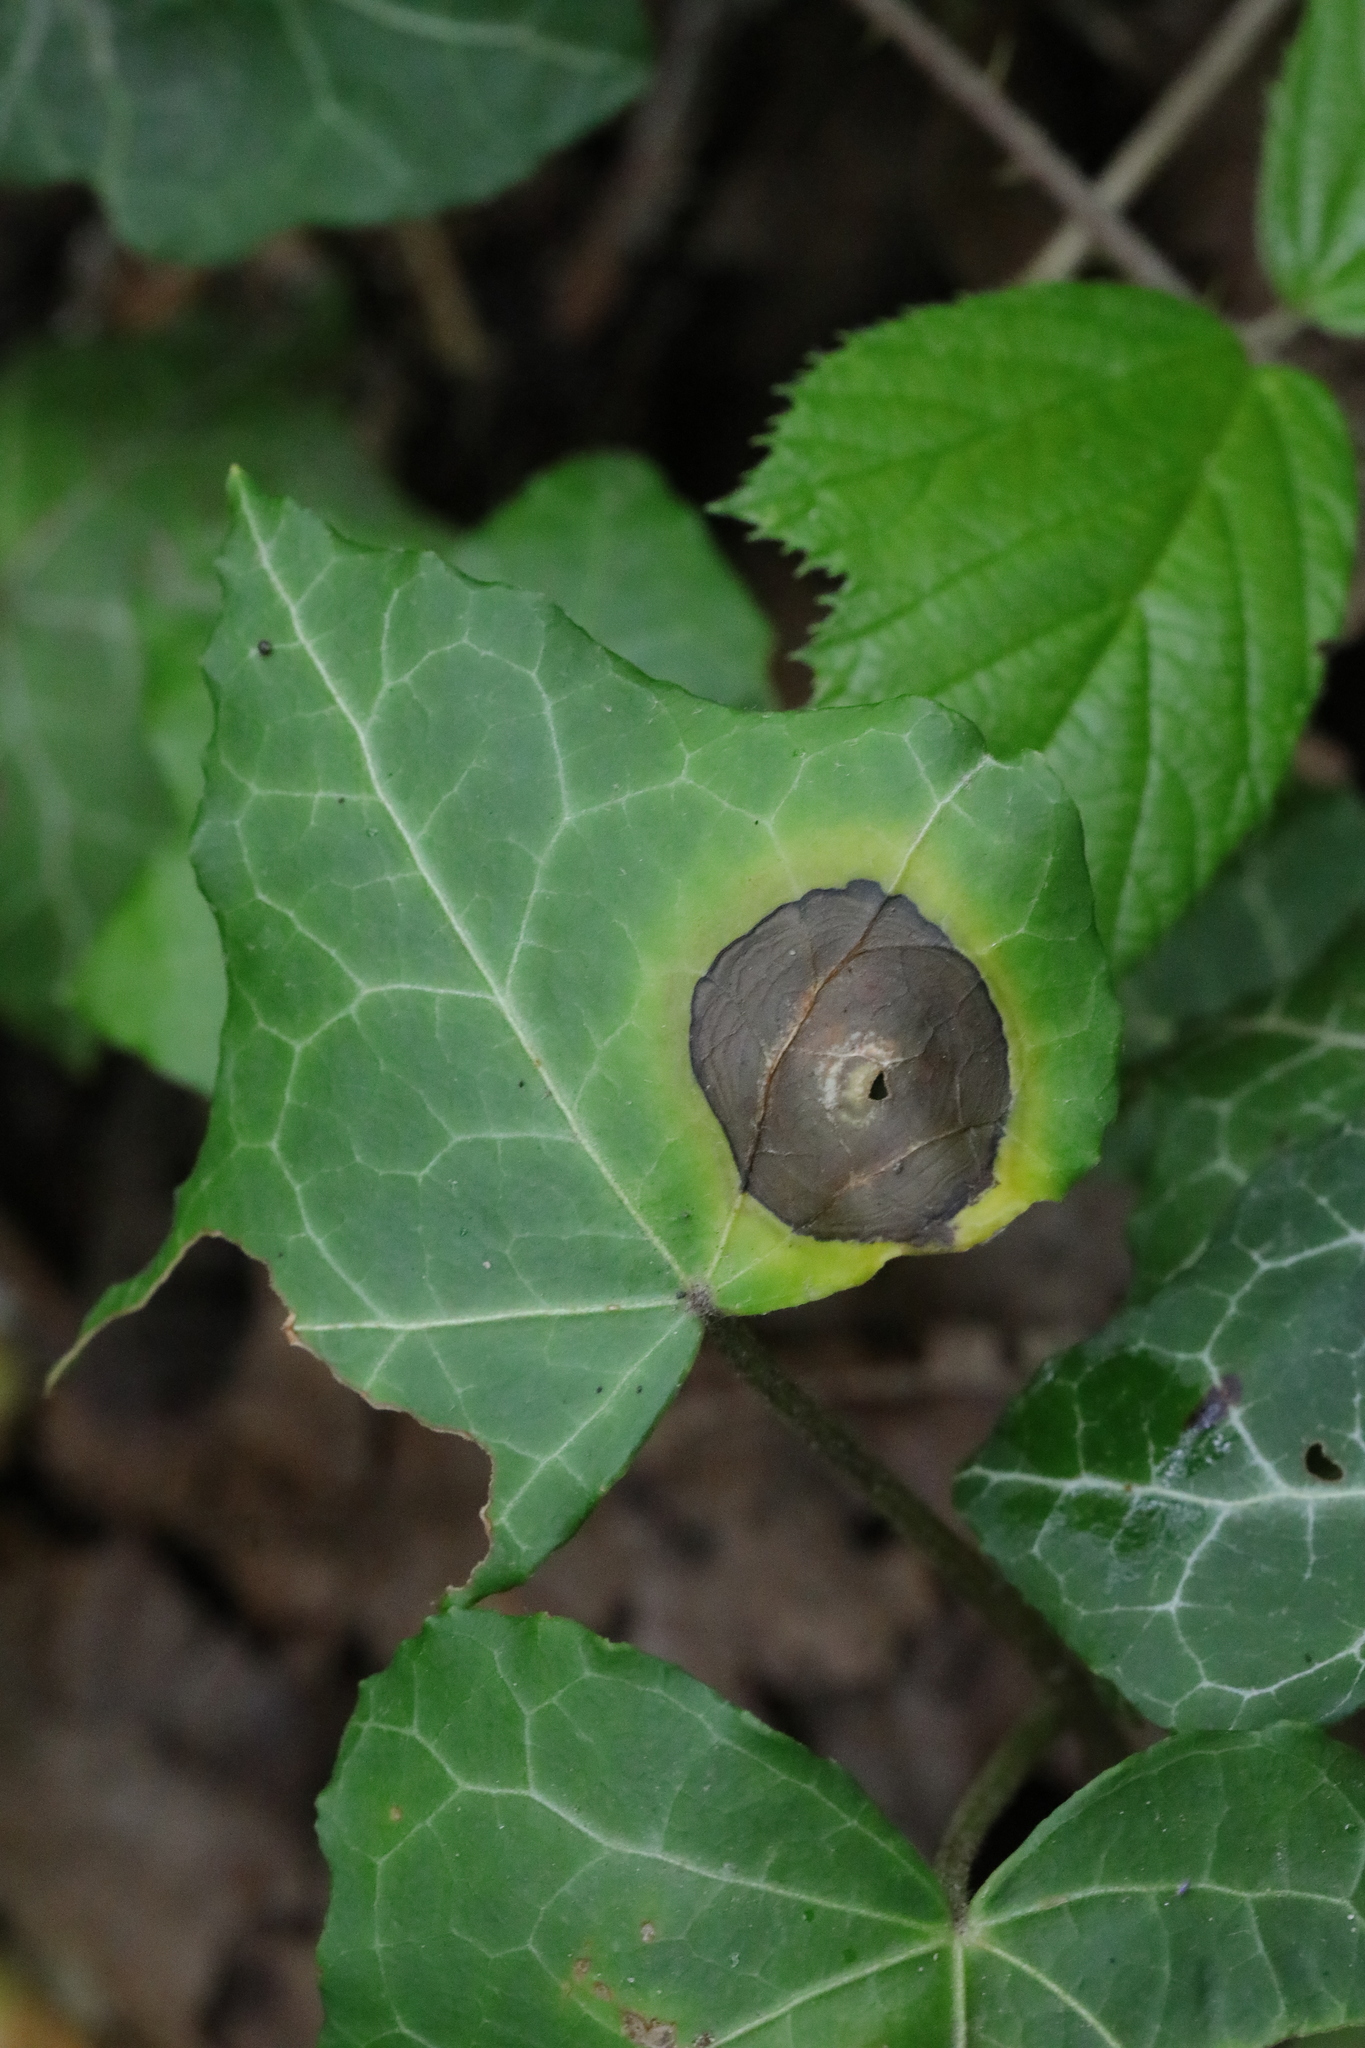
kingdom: Fungi
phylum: Ascomycota
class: Dothideomycetes
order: Pleosporales
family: Didymellaceae
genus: Boeremia
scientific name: Boeremia hedericola
